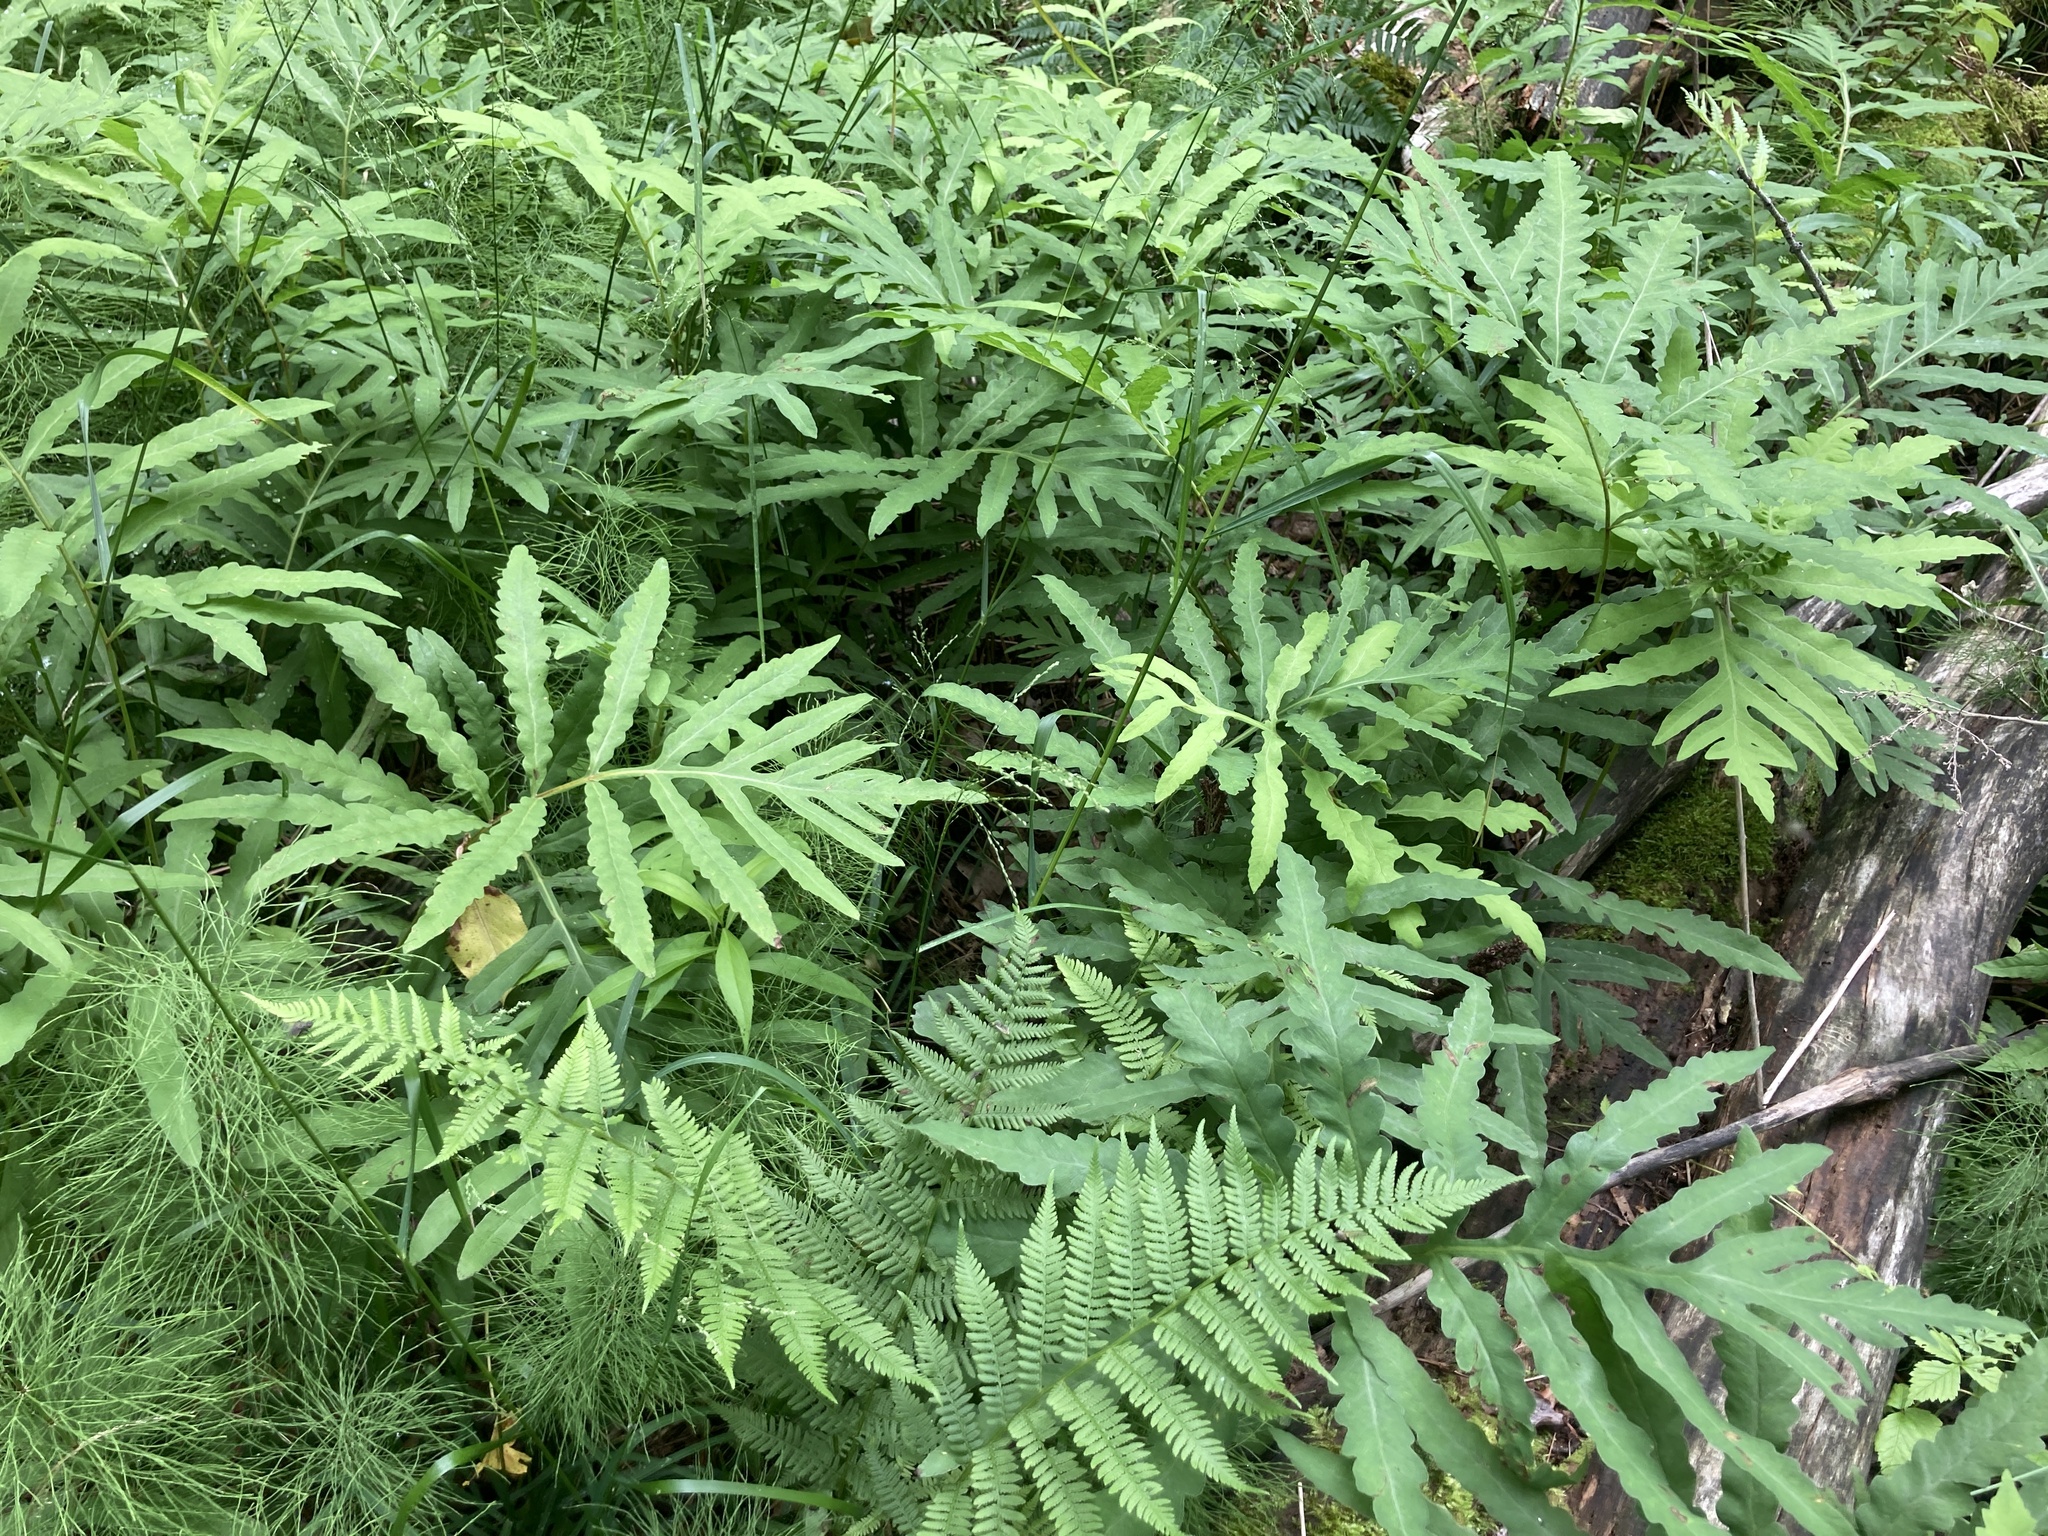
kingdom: Plantae
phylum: Tracheophyta
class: Polypodiopsida
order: Polypodiales
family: Onocleaceae
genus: Onoclea
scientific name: Onoclea sensibilis
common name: Sensitive fern
